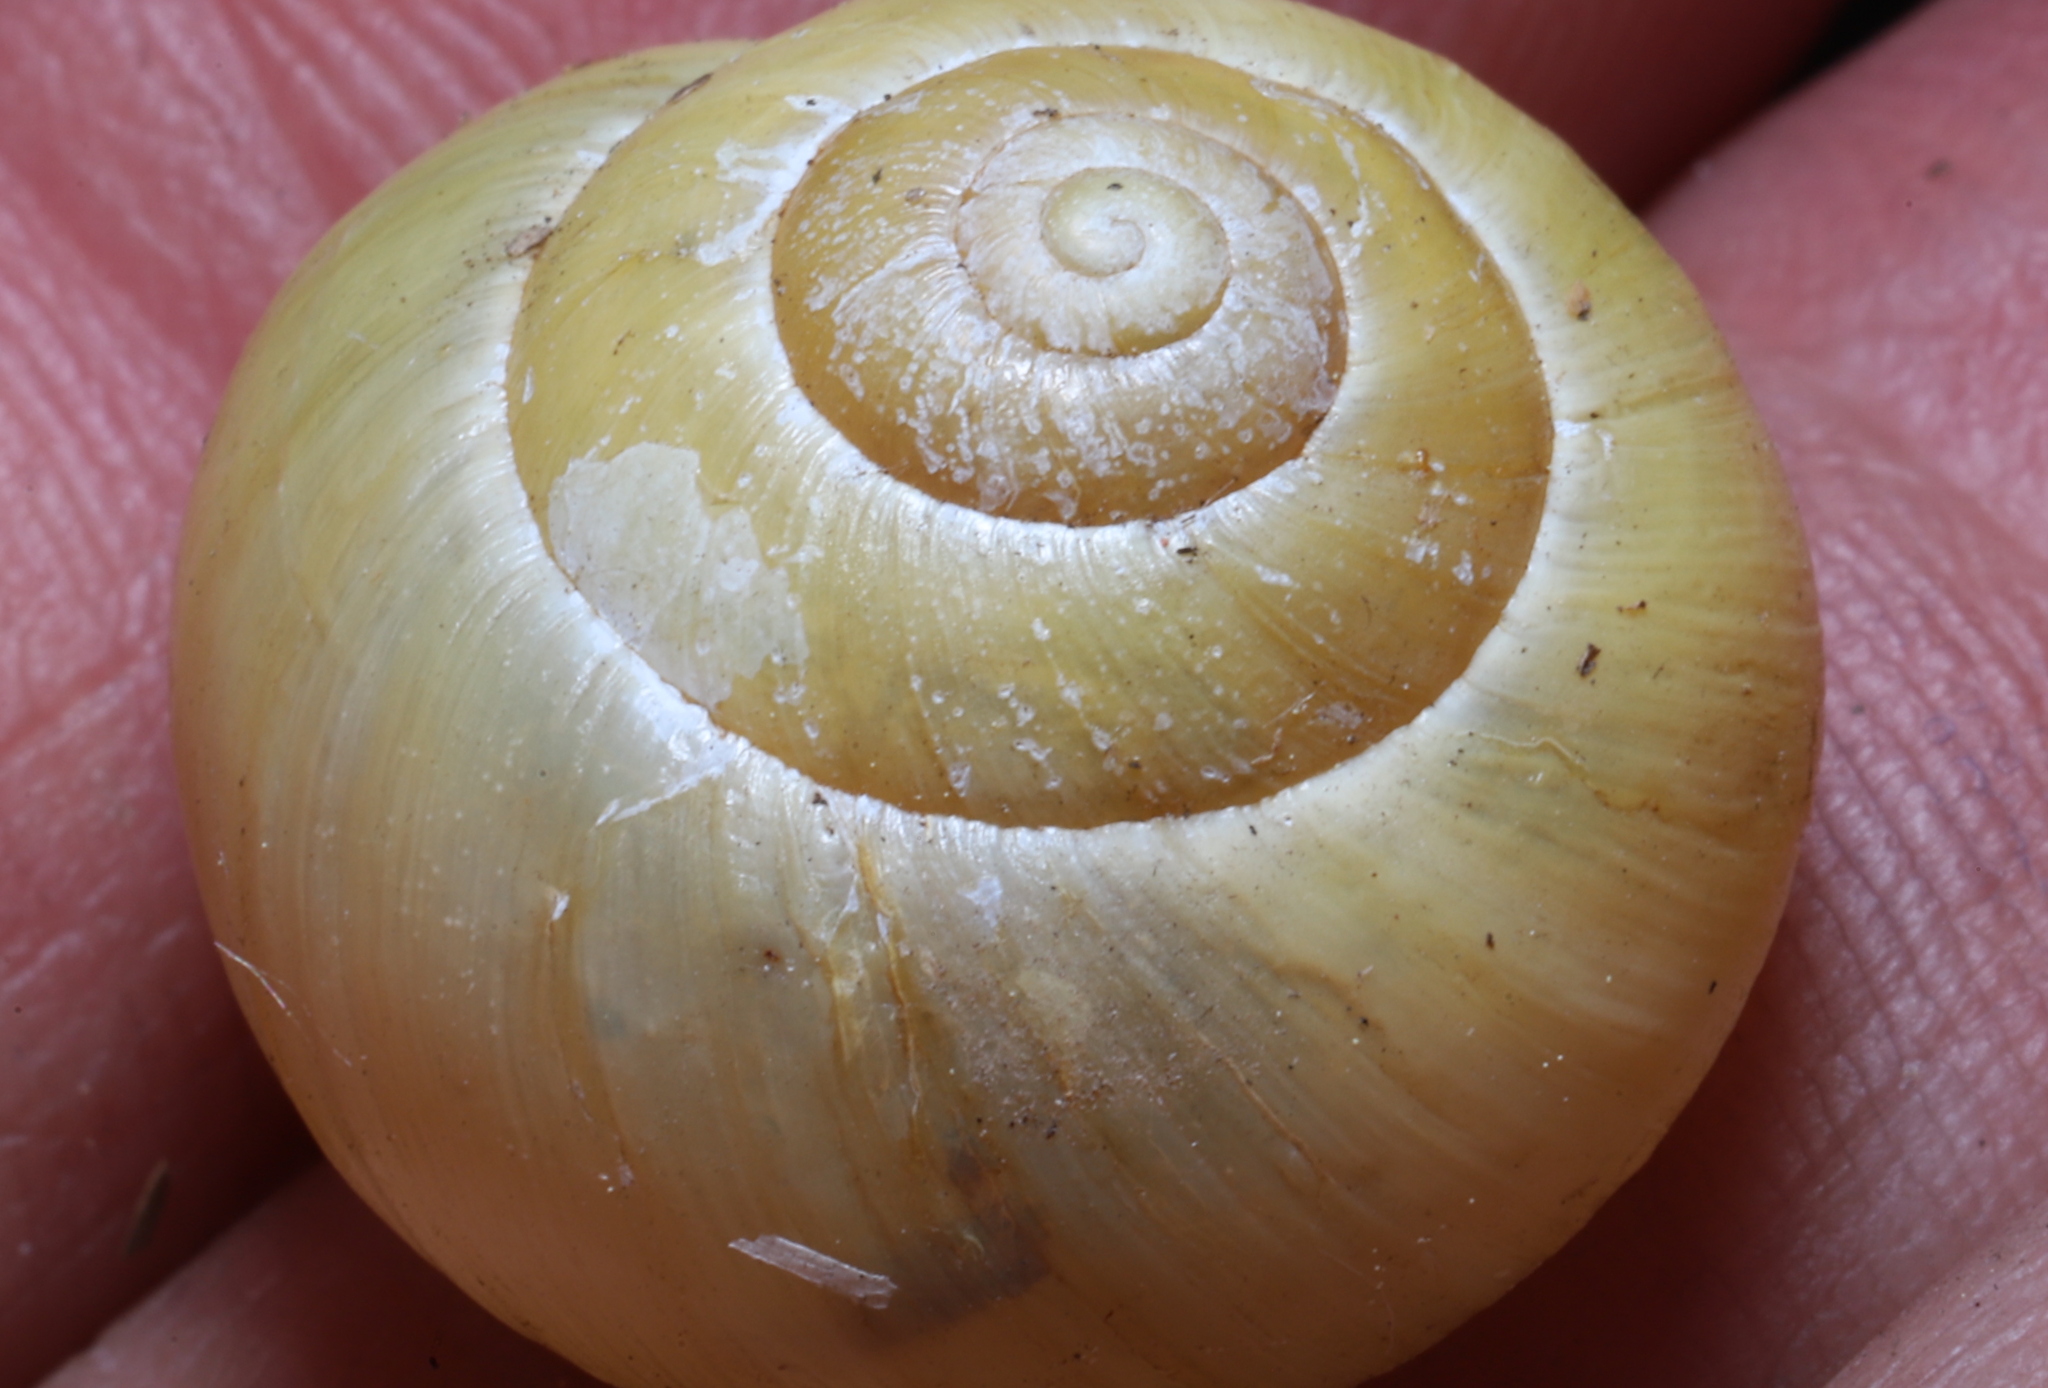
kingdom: Animalia
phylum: Mollusca
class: Gastropoda
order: Stylommatophora
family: Helicidae
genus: Cepaea
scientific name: Cepaea nemoralis
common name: Grovesnail
